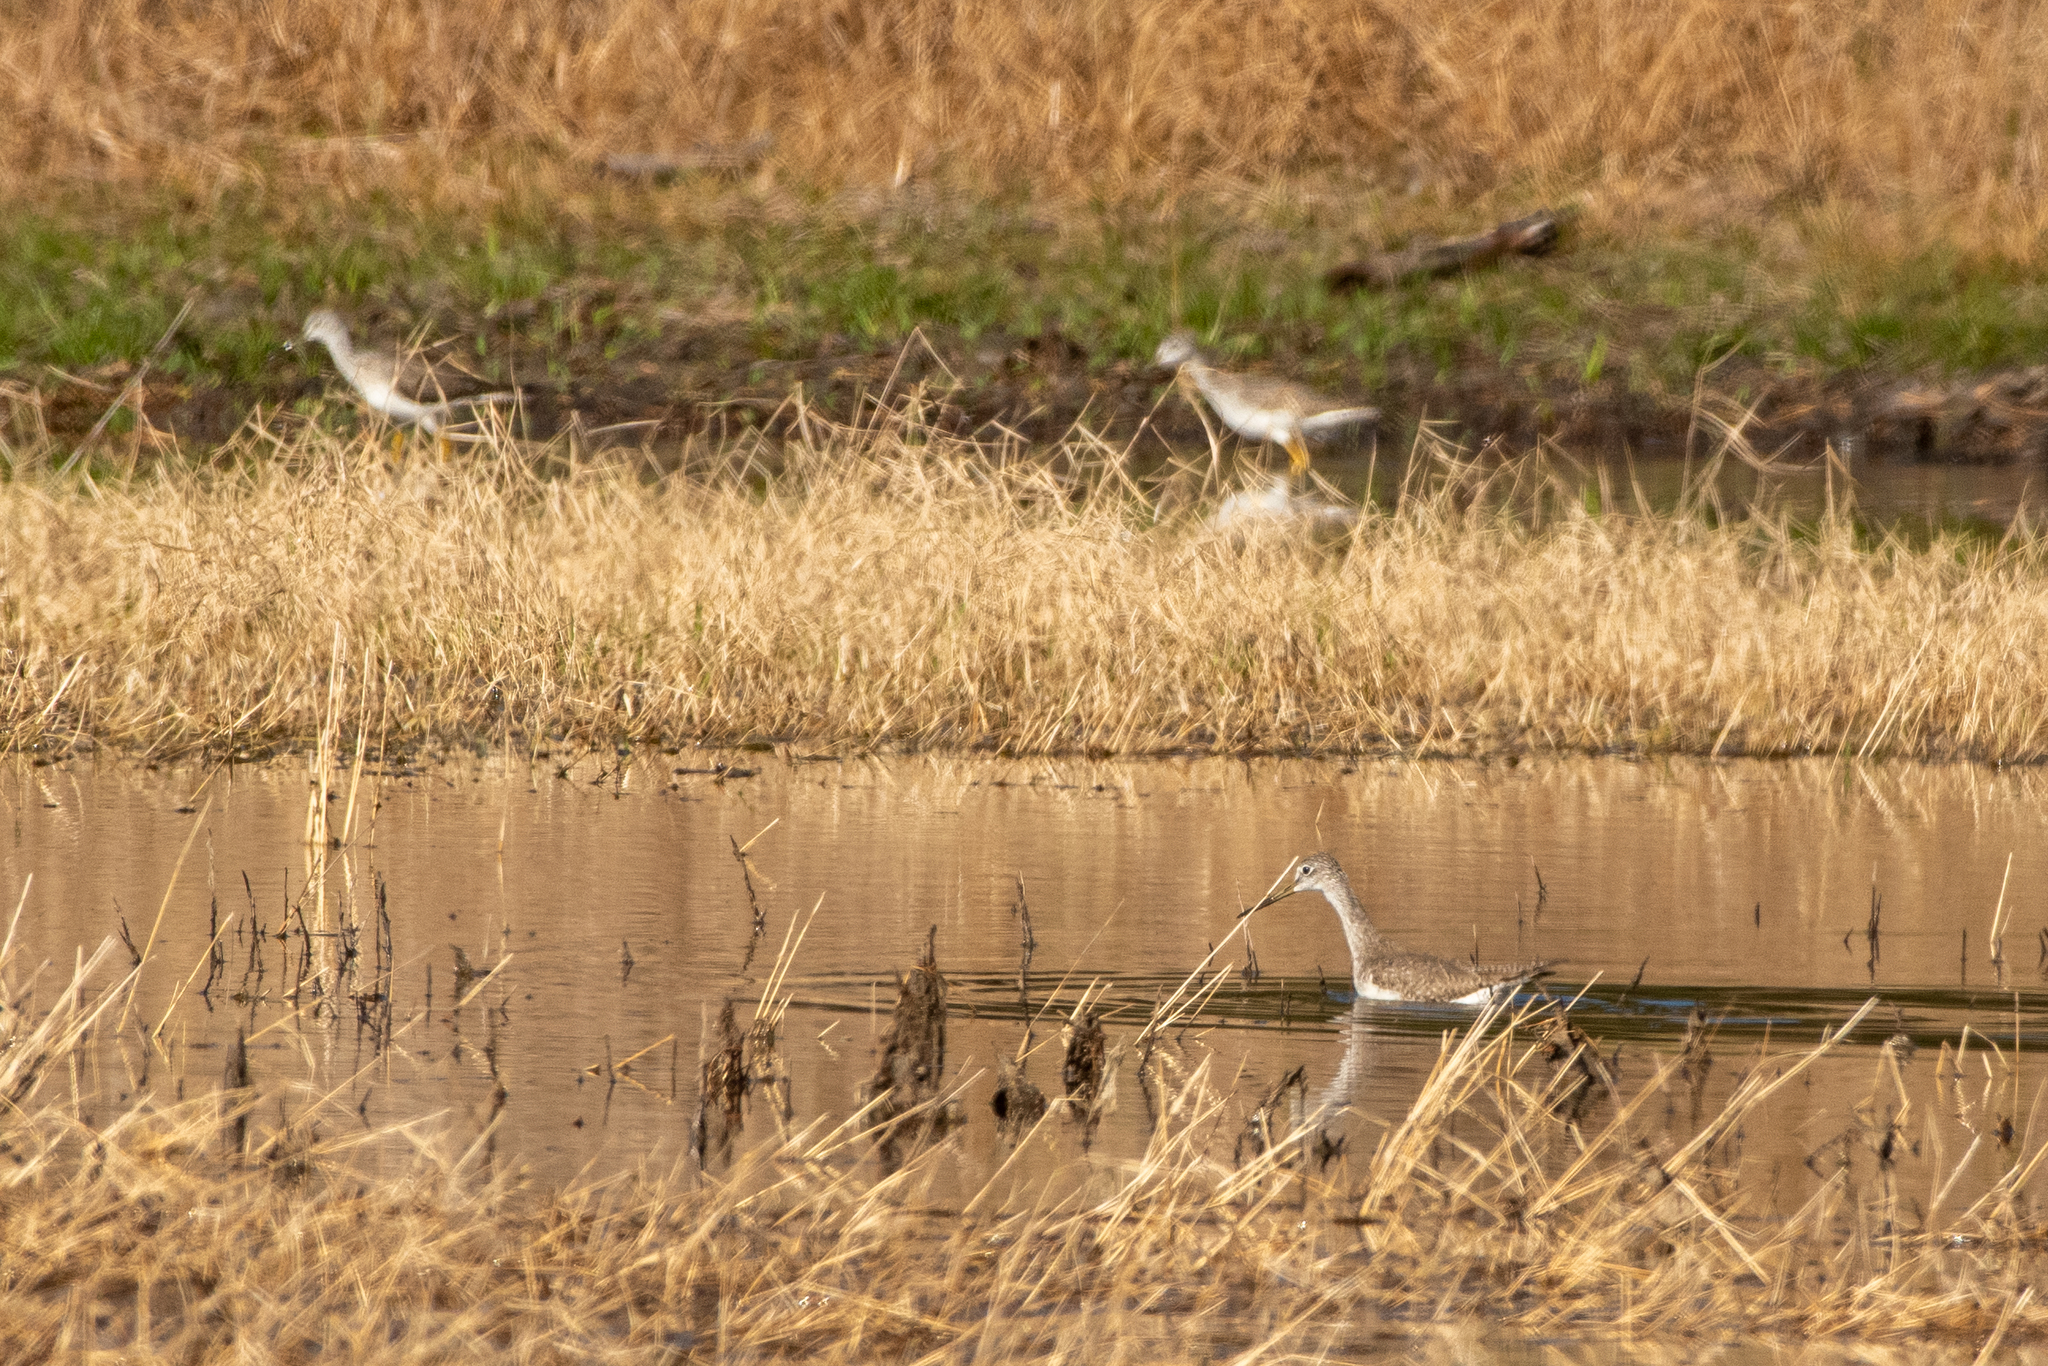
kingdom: Animalia
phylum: Chordata
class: Aves
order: Charadriiformes
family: Scolopacidae
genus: Tringa
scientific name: Tringa melanoleuca
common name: Greater yellowlegs
